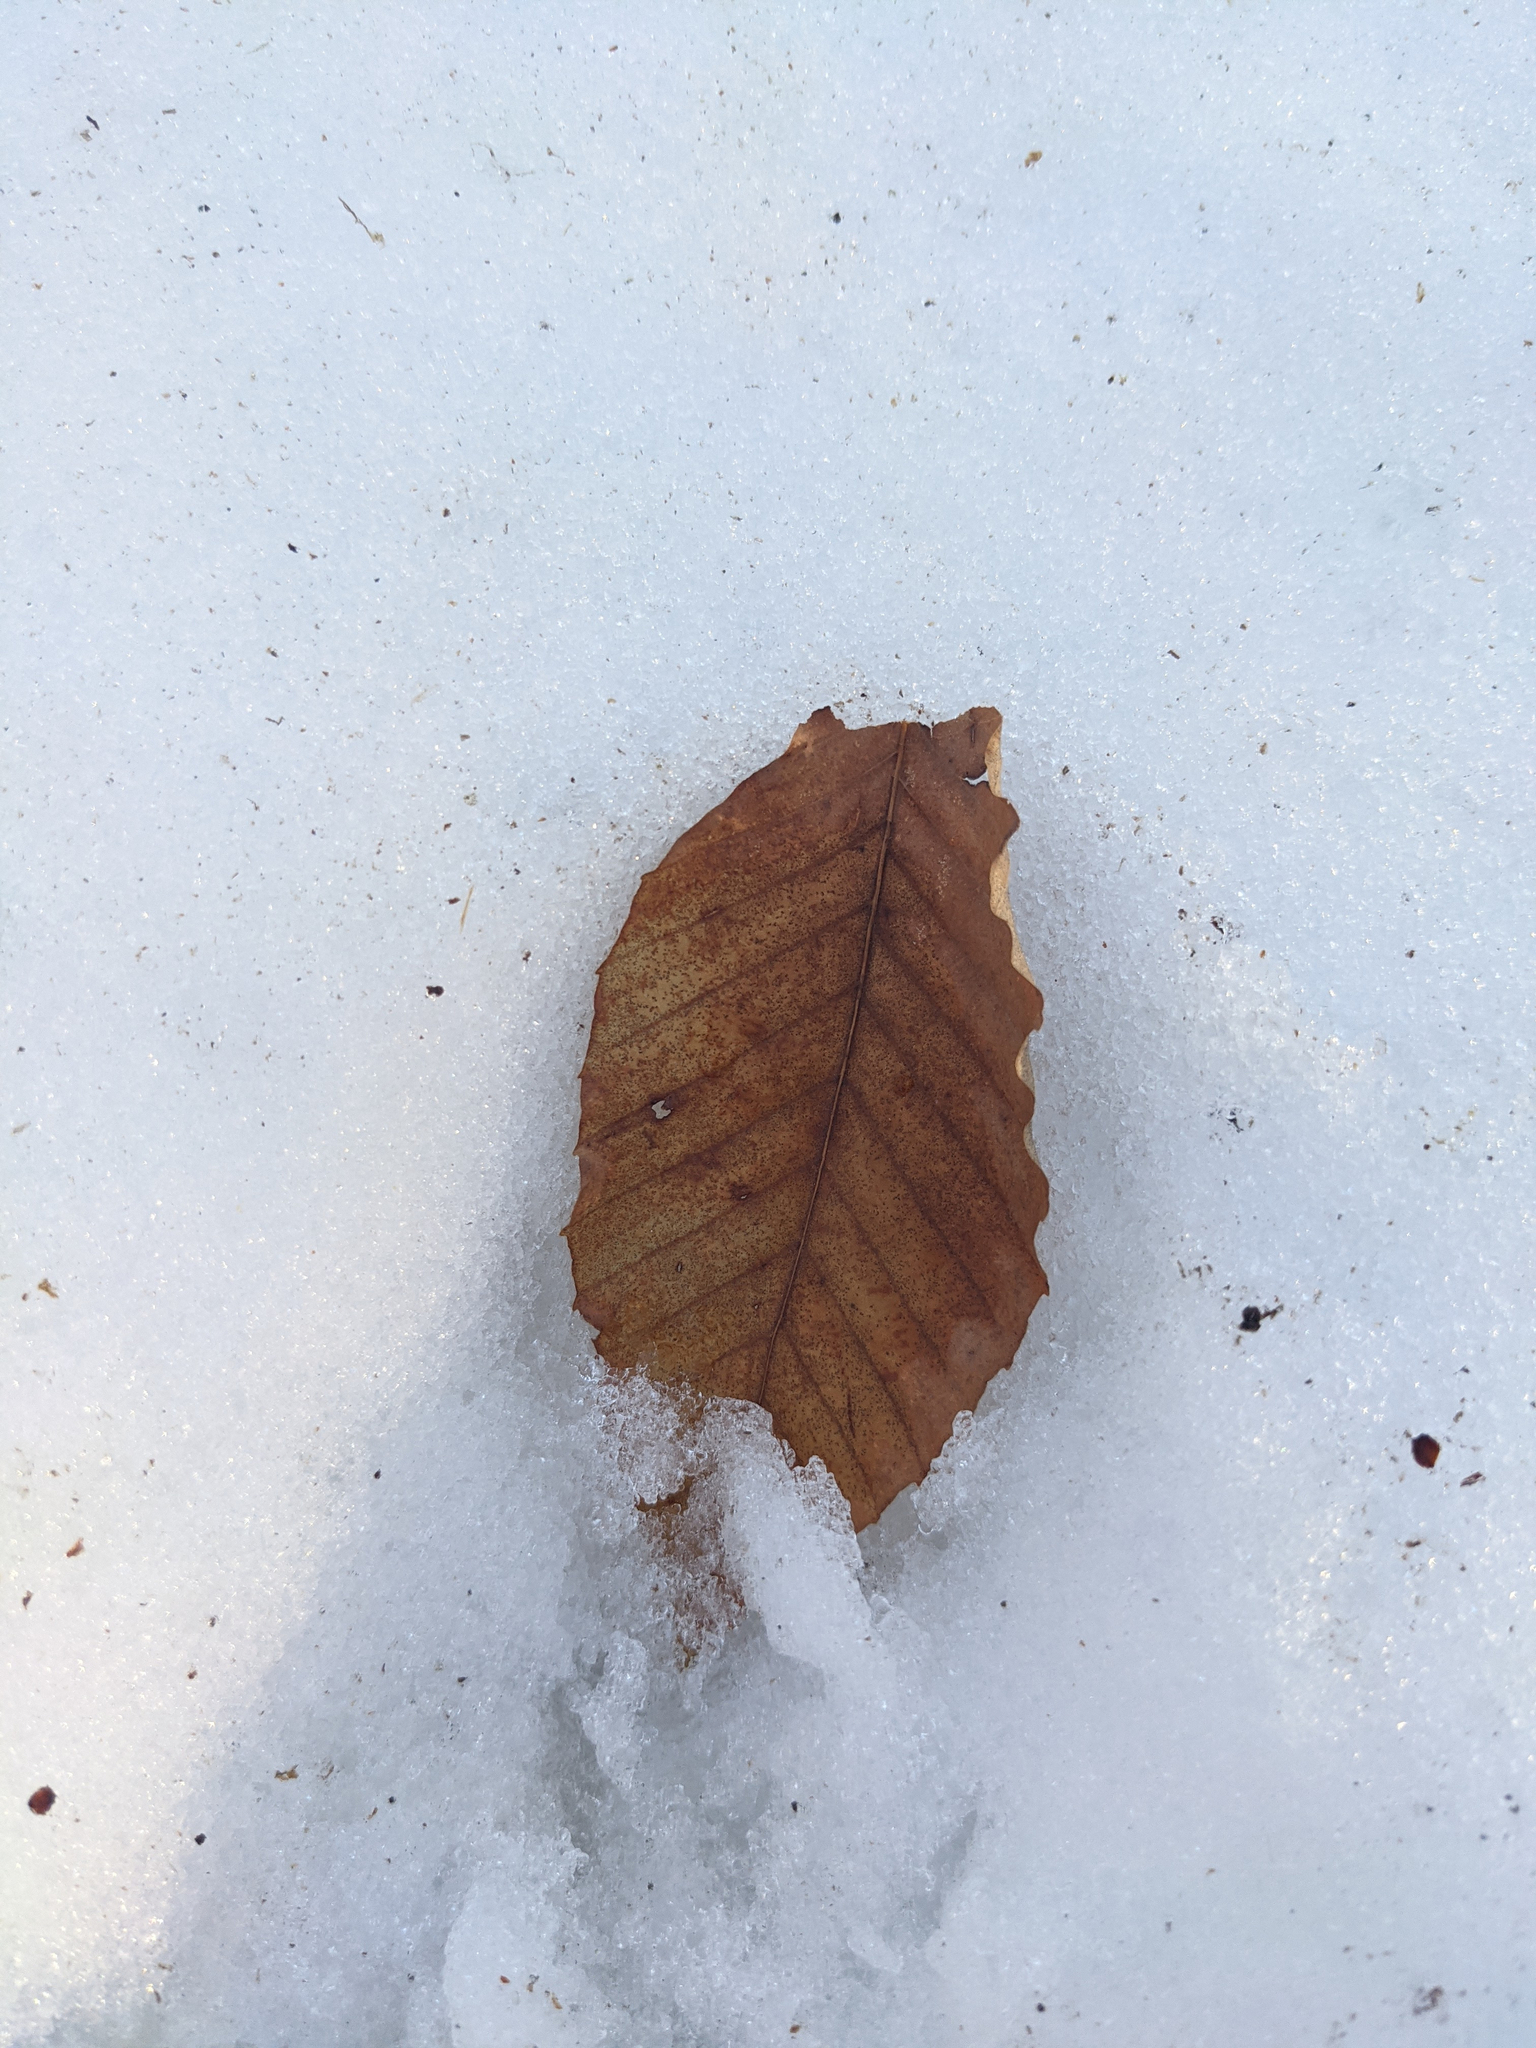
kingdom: Plantae
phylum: Tracheophyta
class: Magnoliopsida
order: Fagales
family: Fagaceae
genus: Fagus
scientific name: Fagus grandifolia
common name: American beech
